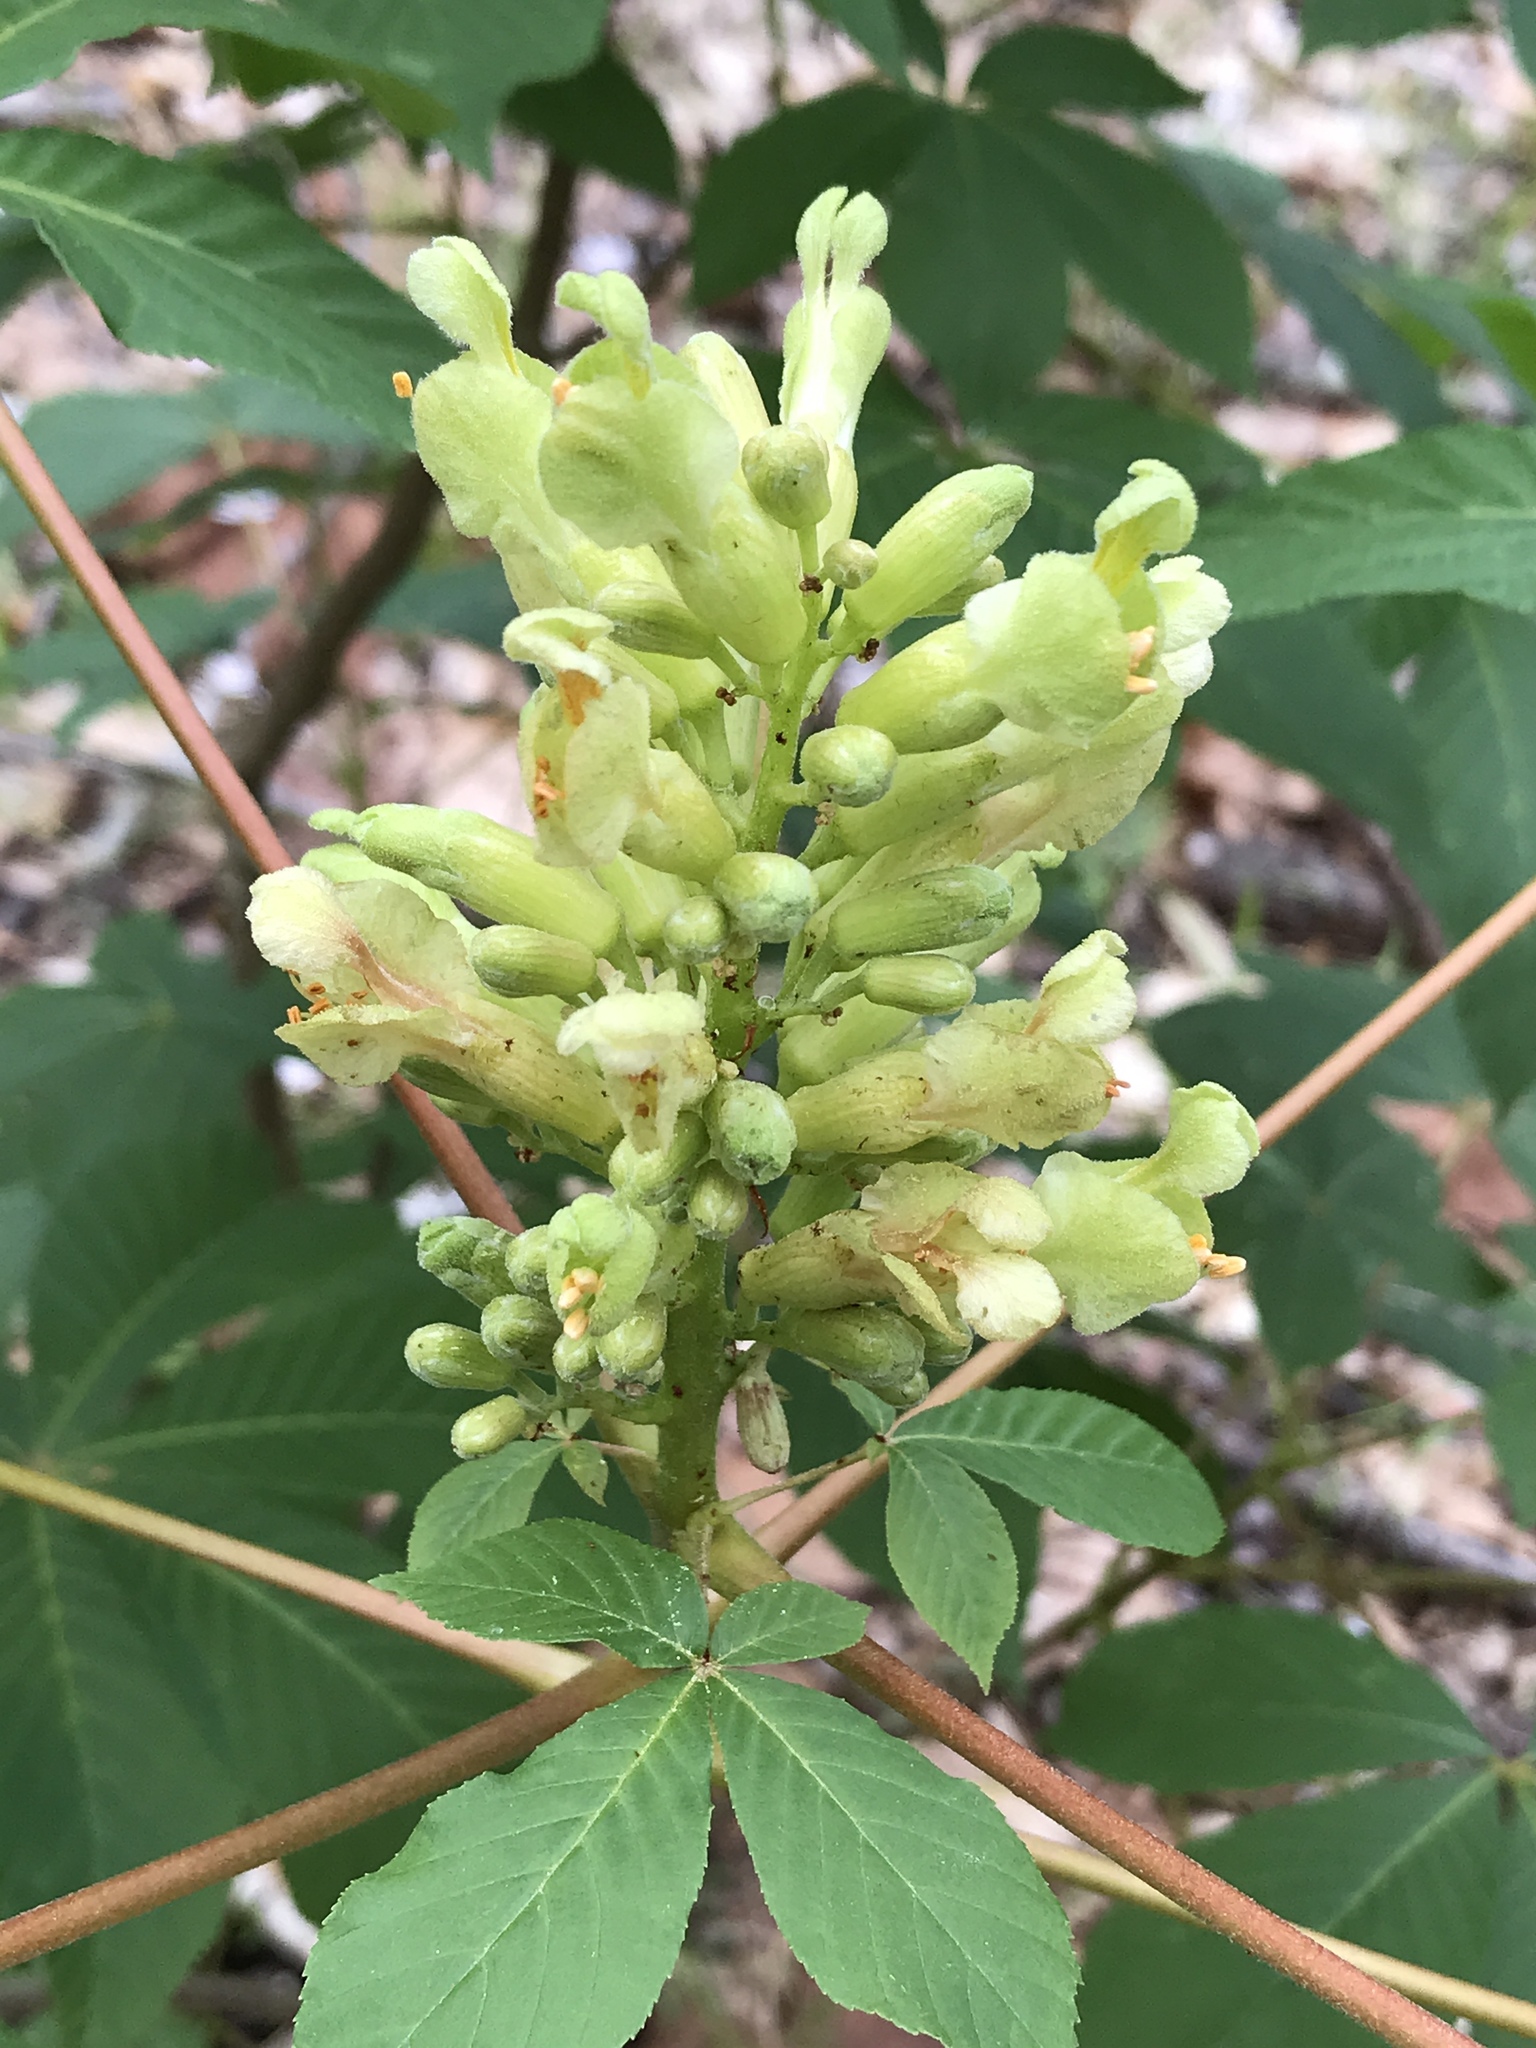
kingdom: Plantae
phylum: Tracheophyta
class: Magnoliopsida
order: Sapindales
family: Sapindaceae
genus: Aesculus
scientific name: Aesculus sylvatica
